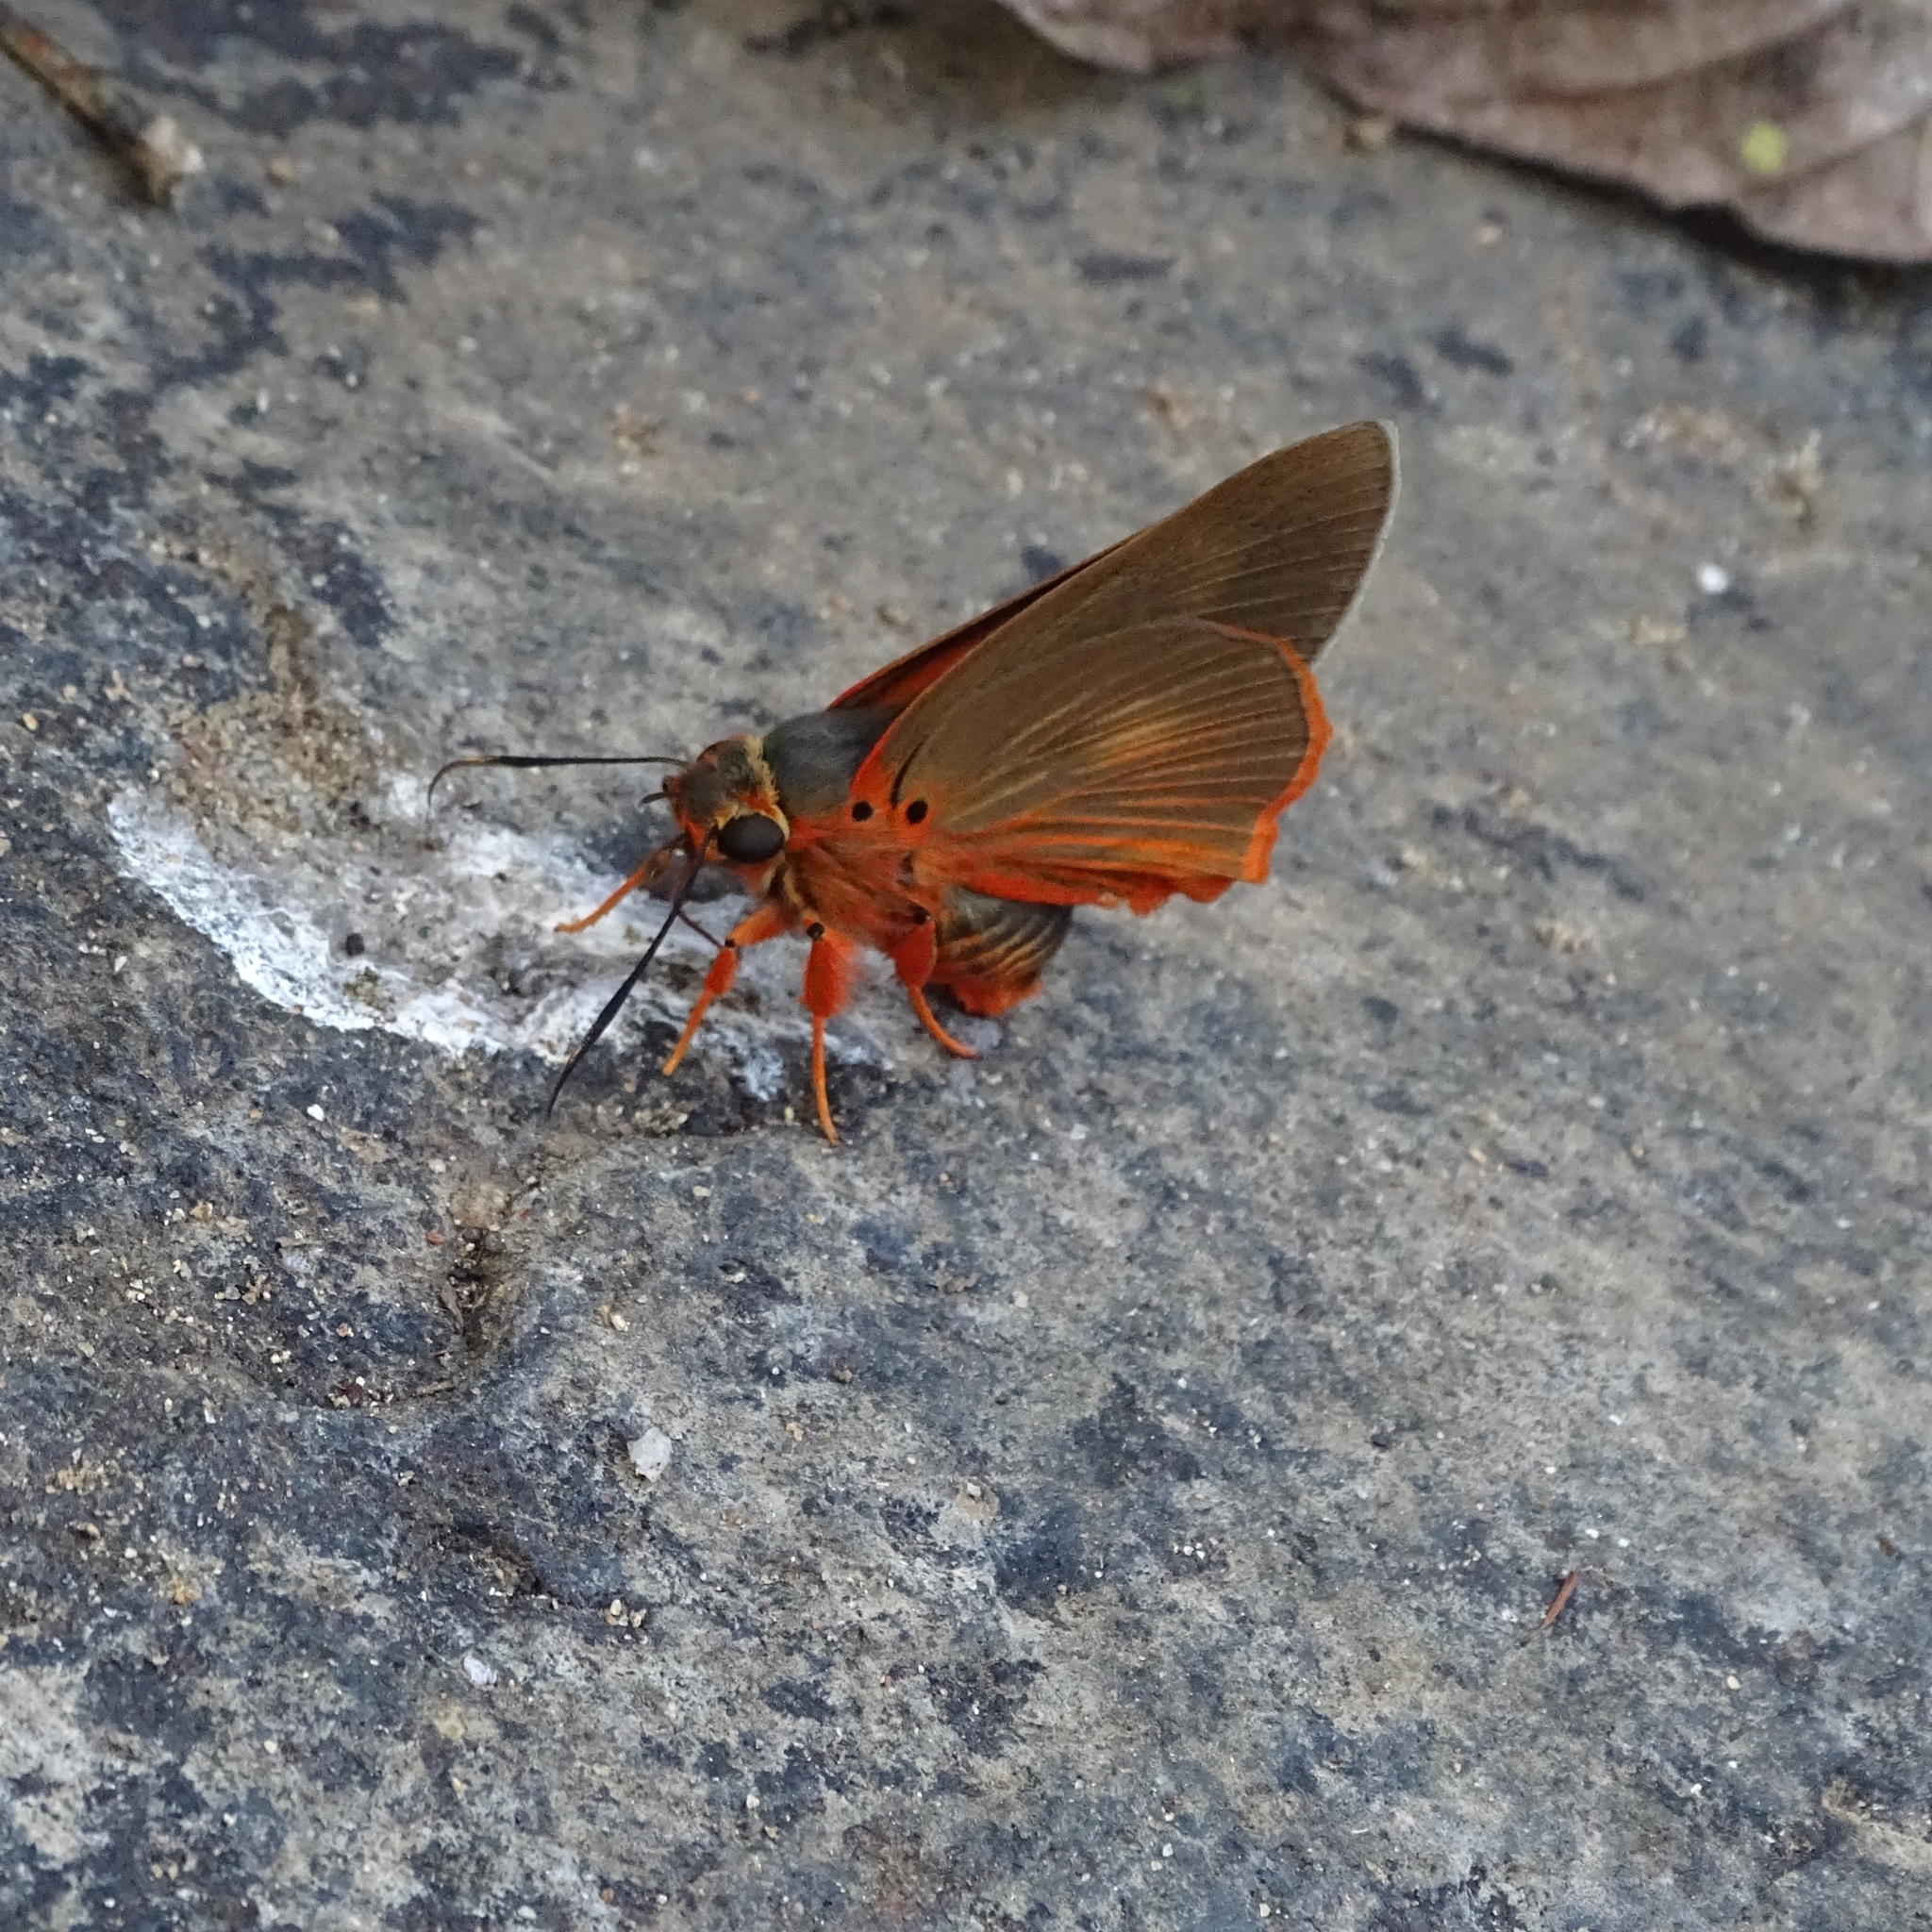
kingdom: Animalia
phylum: Arthropoda
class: Insecta
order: Lepidoptera
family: Hesperiidae
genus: Bibasis
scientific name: Bibasis jaina
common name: Common orange awlet
